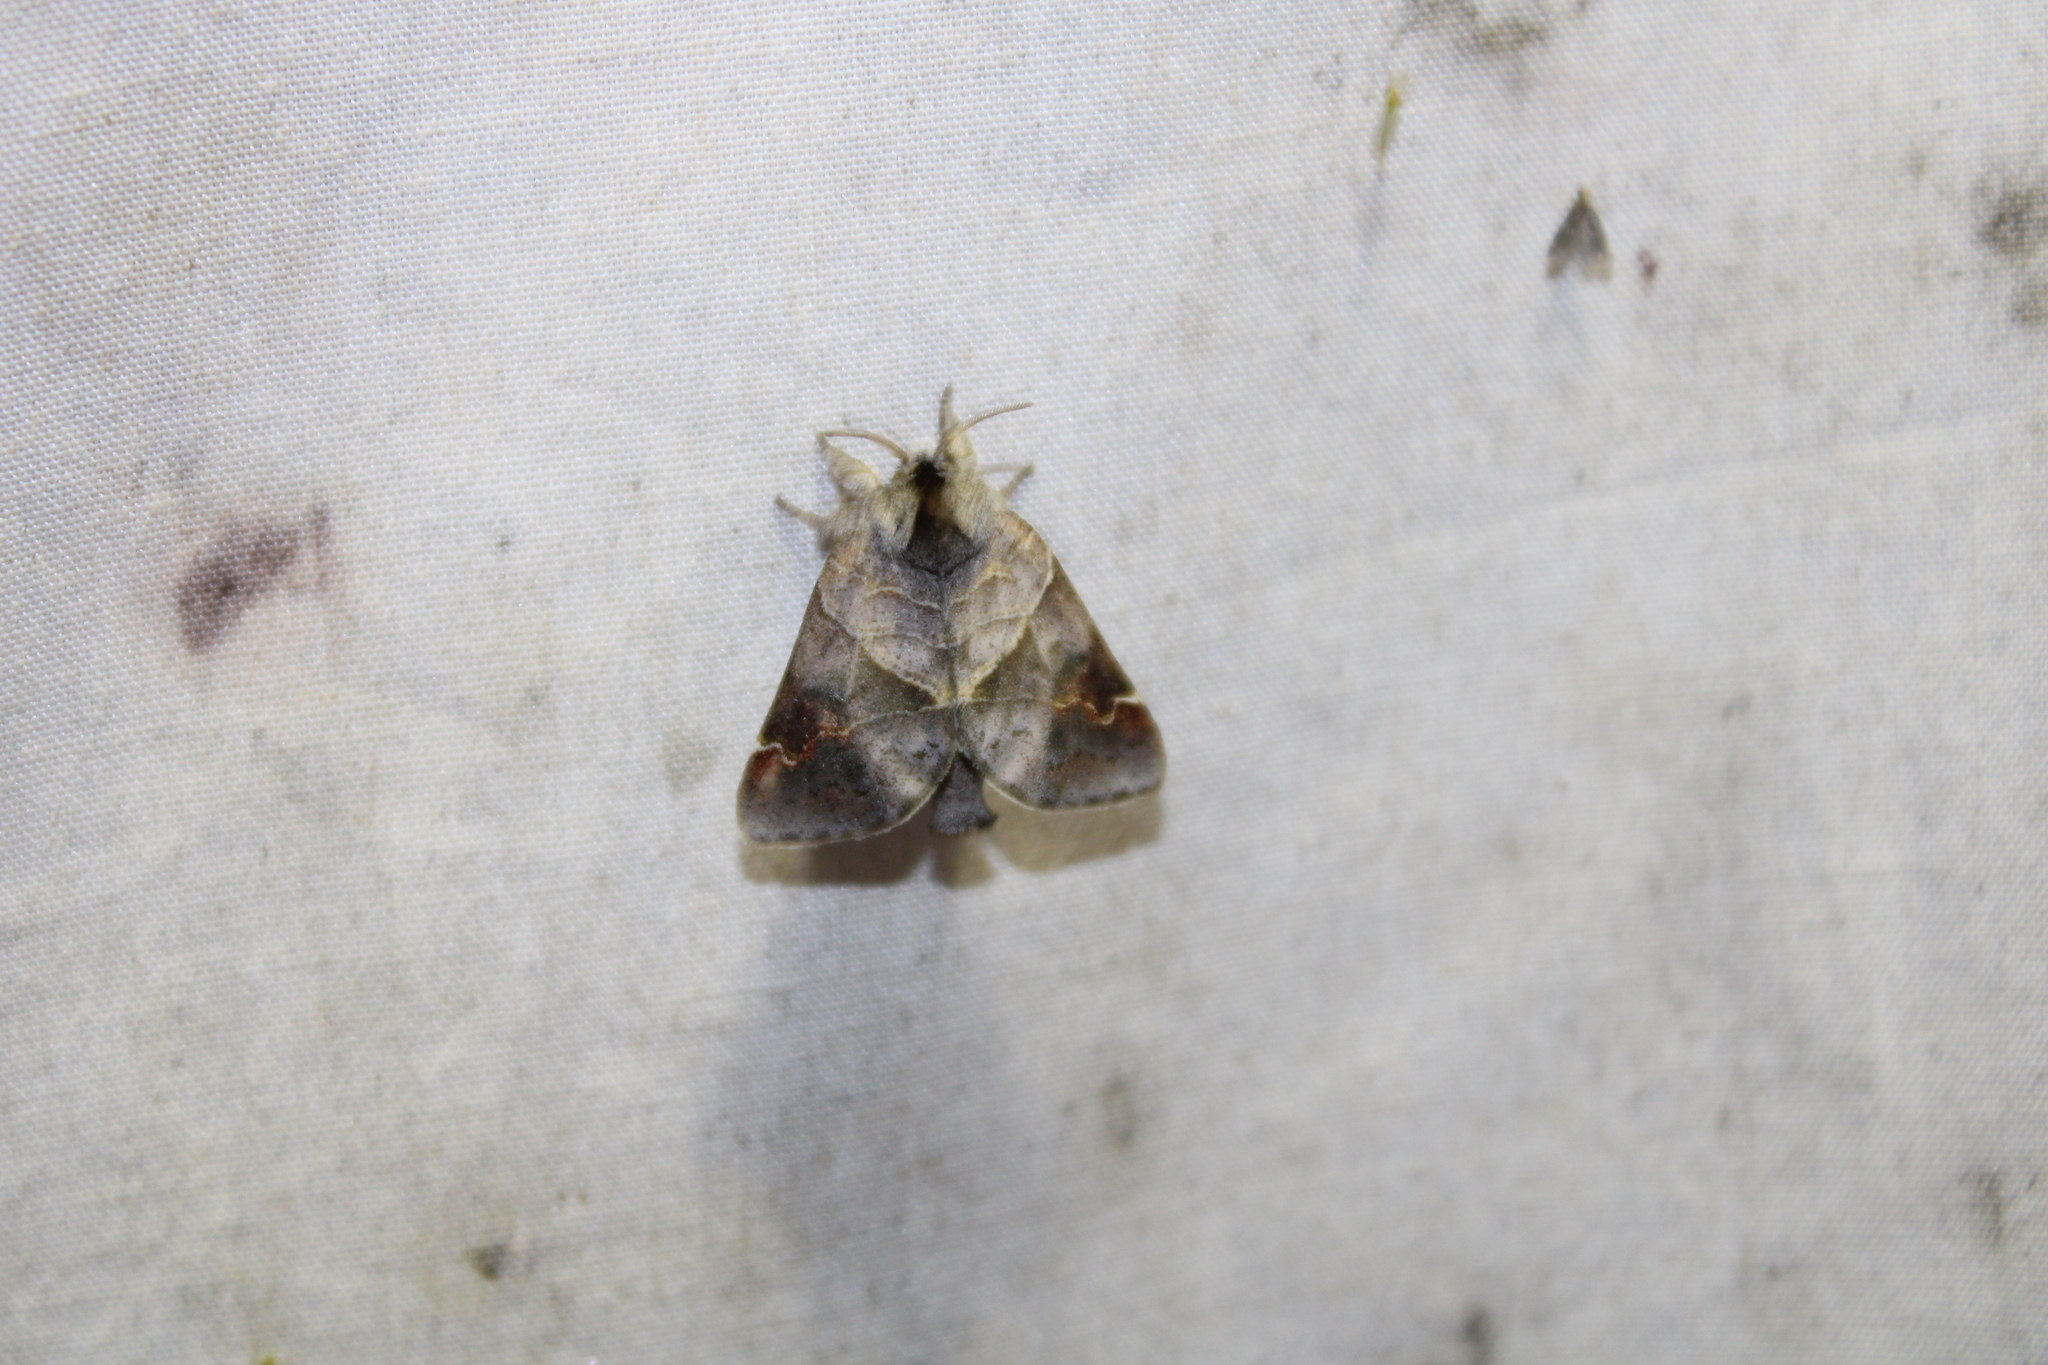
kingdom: Animalia
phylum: Arthropoda
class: Insecta
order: Lepidoptera
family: Notodontidae
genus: Clostera
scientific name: Clostera apicalis
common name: Apical prominent
